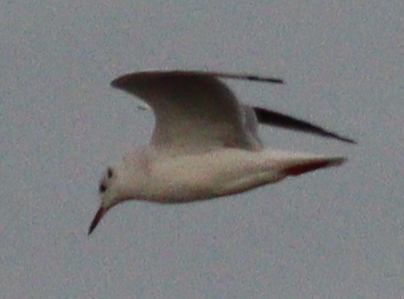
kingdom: Animalia
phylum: Chordata
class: Aves
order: Charadriiformes
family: Laridae
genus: Chroicocephalus
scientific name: Chroicocephalus ridibundus
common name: Black-headed gull
